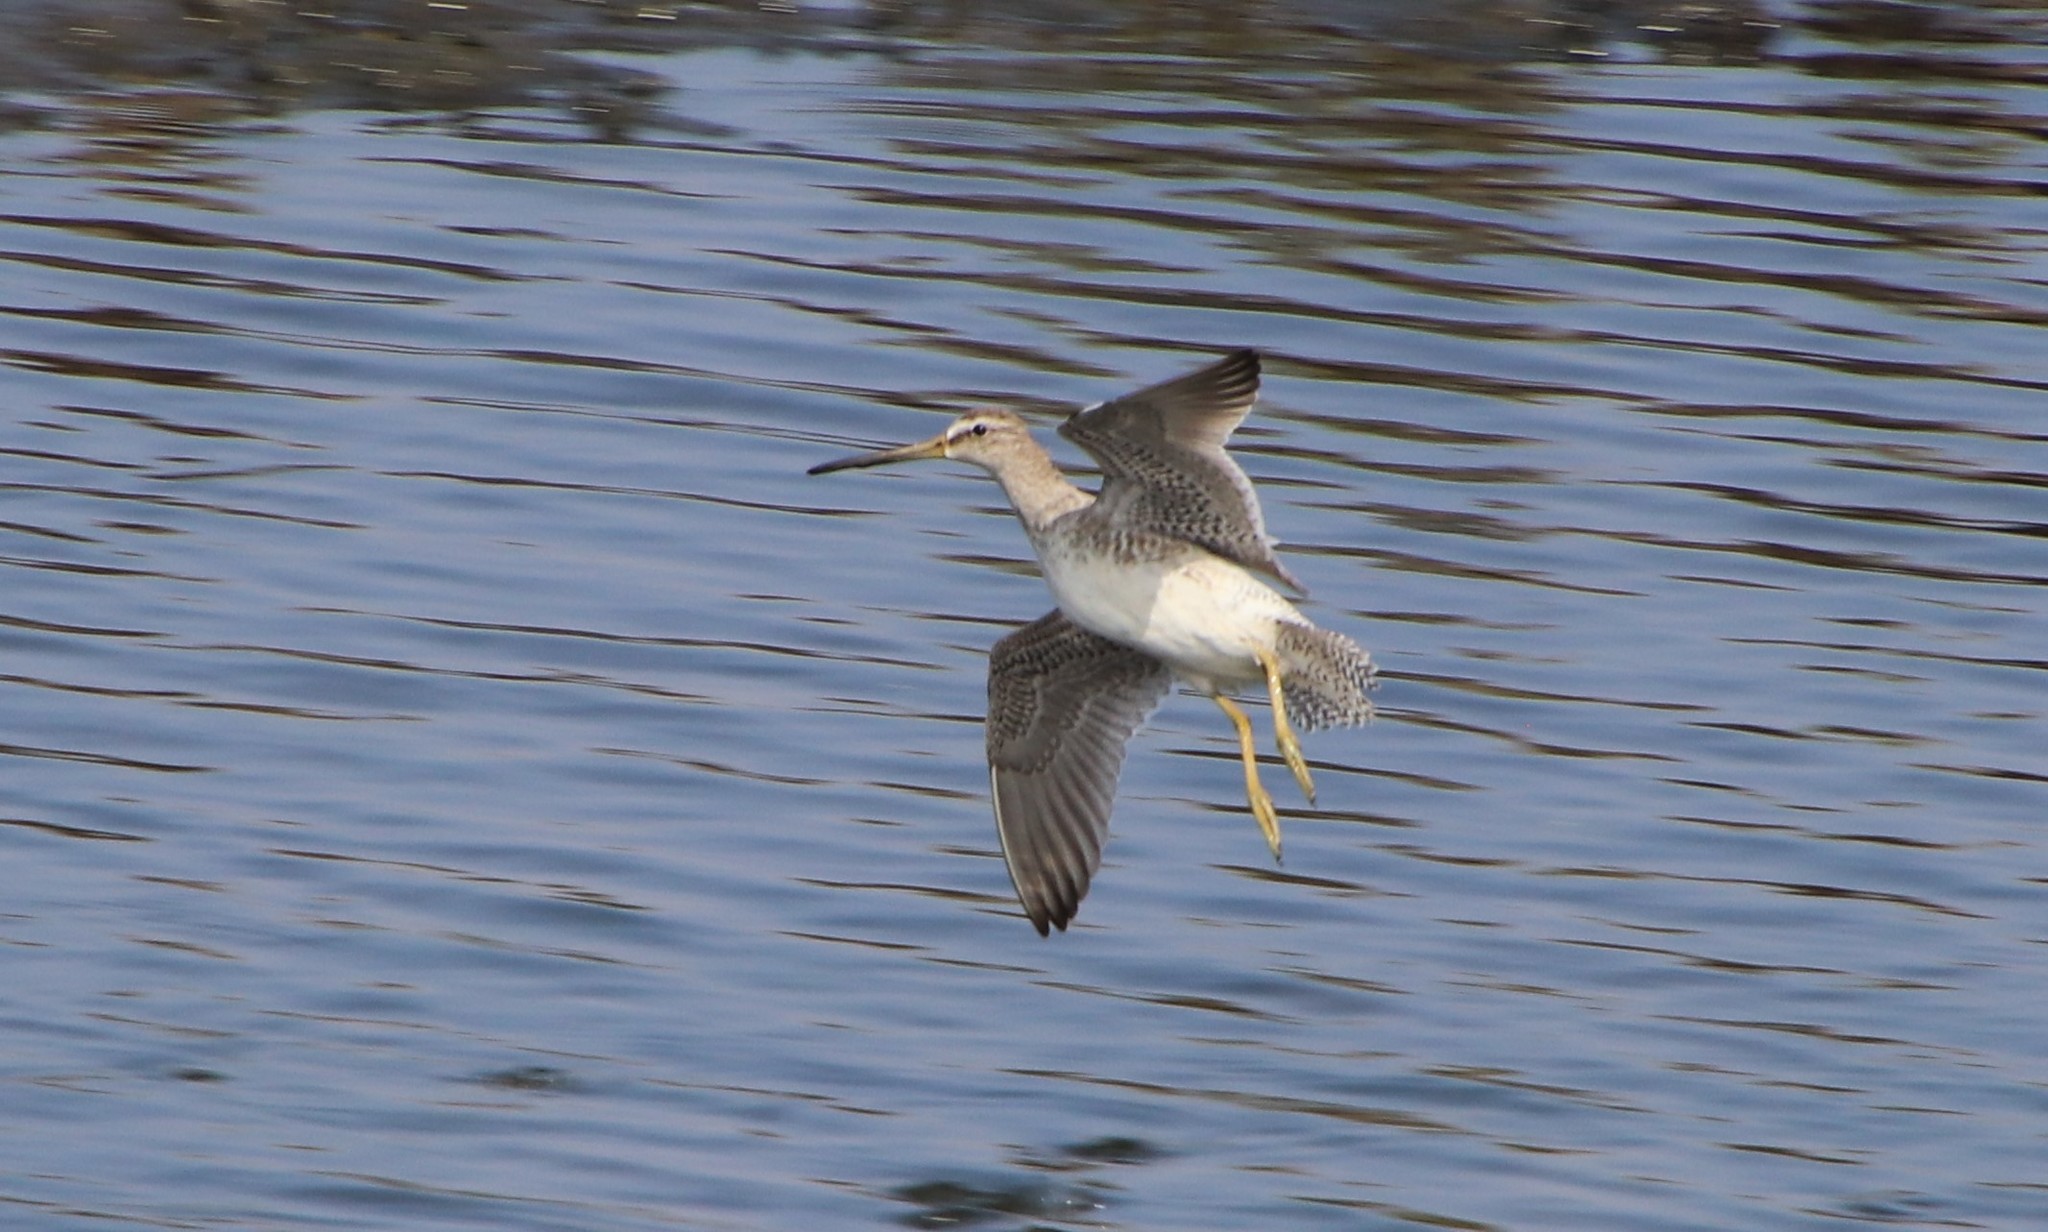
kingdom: Animalia
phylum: Chordata
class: Aves
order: Charadriiformes
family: Scolopacidae
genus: Limnodromus
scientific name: Limnodromus scolopaceus
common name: Long-billed dowitcher
